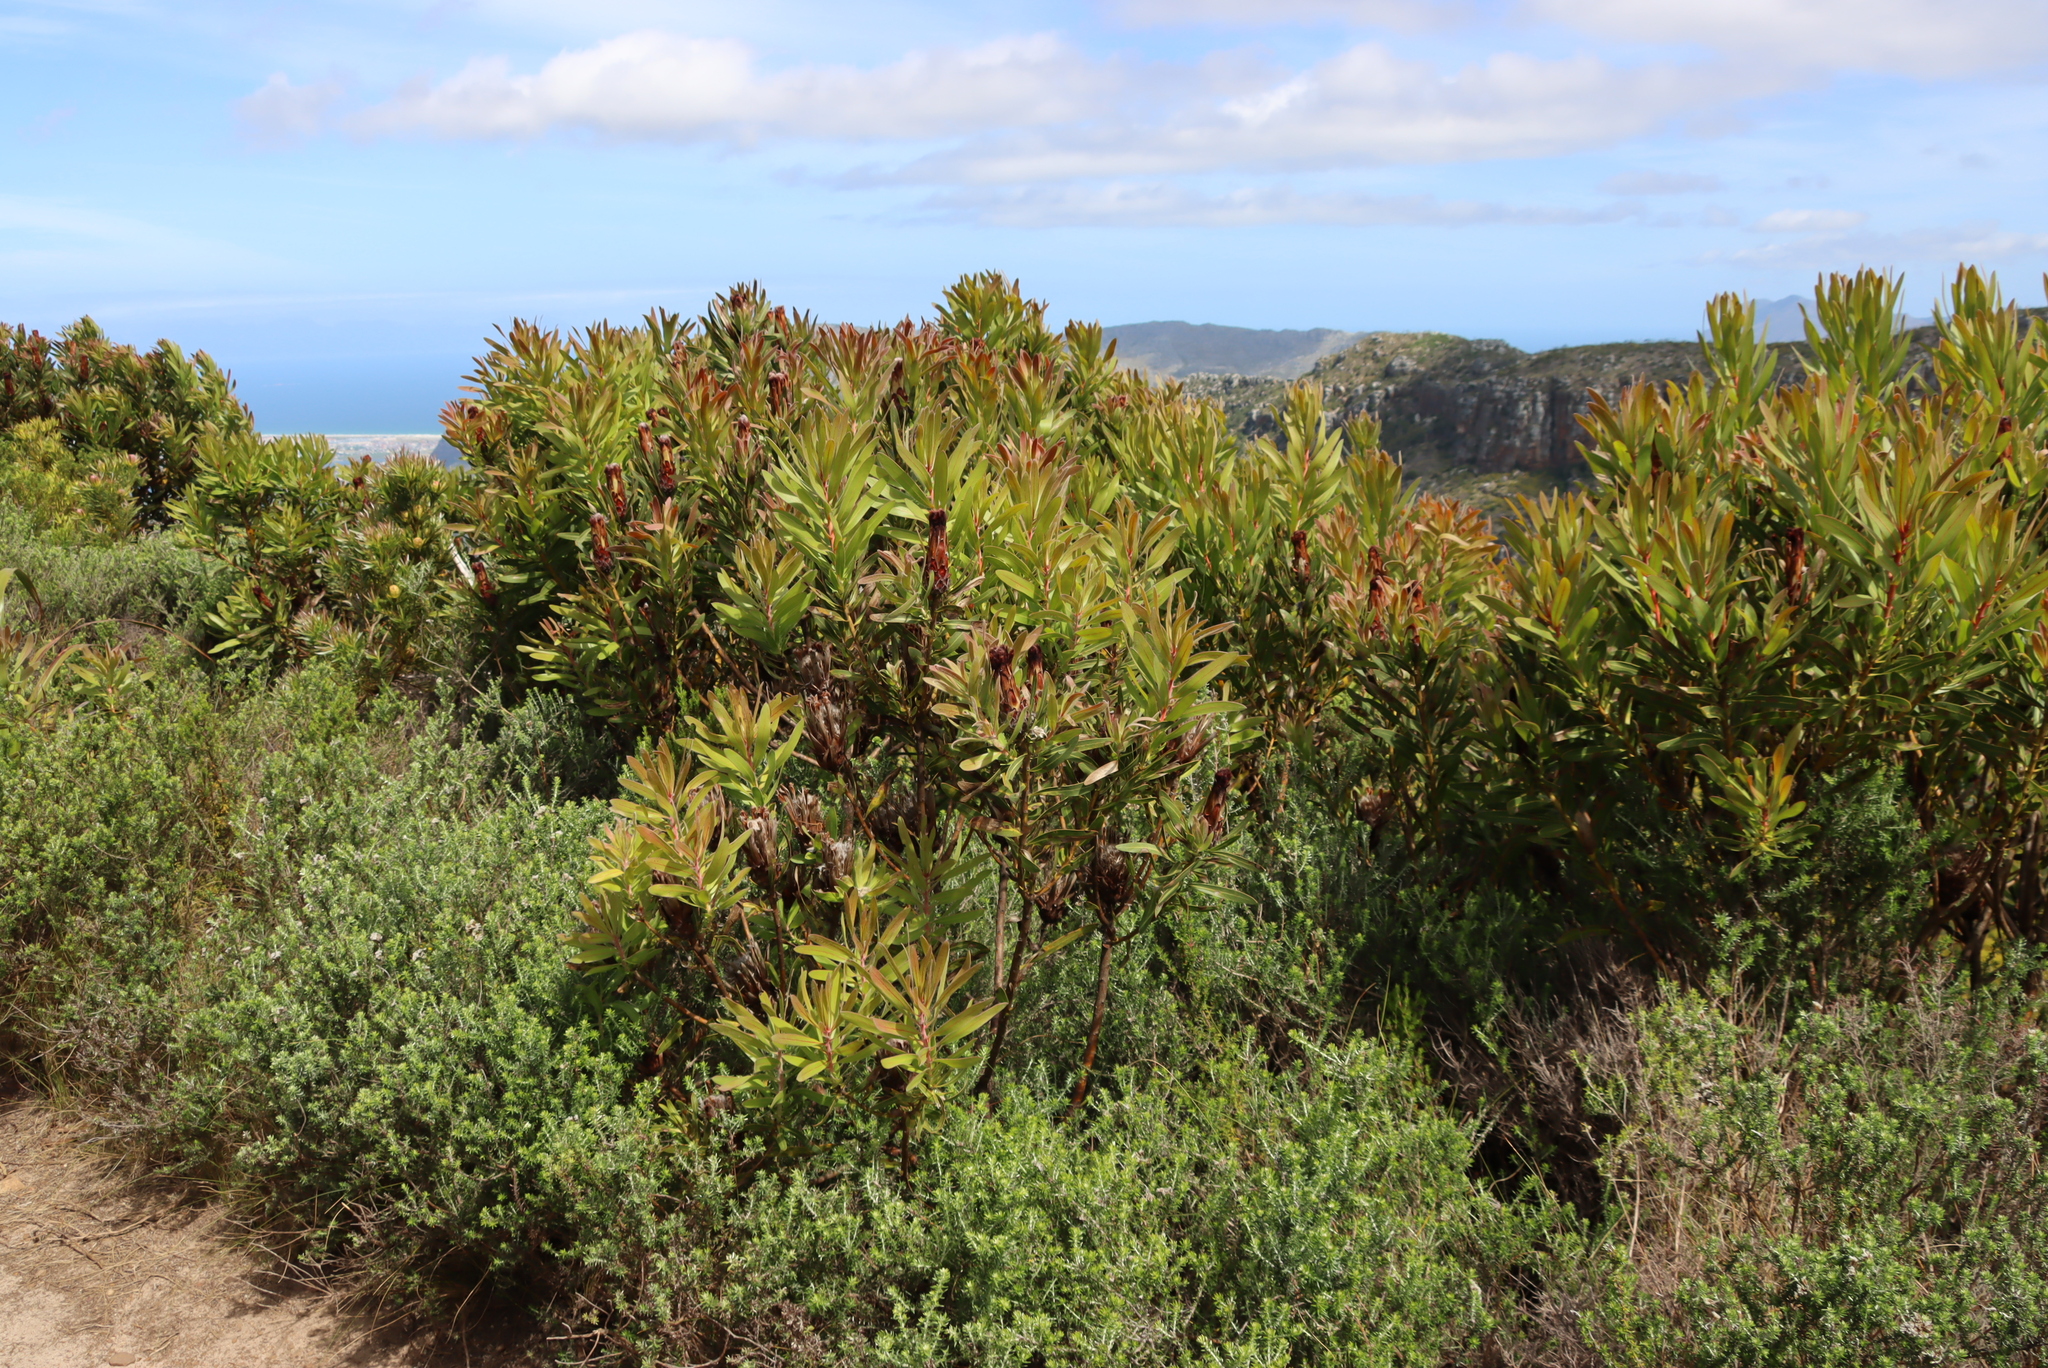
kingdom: Plantae
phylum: Tracheophyta
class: Magnoliopsida
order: Proteales
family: Proteaceae
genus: Protea
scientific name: Protea lepidocarpodendron
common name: Black-bearded protea
